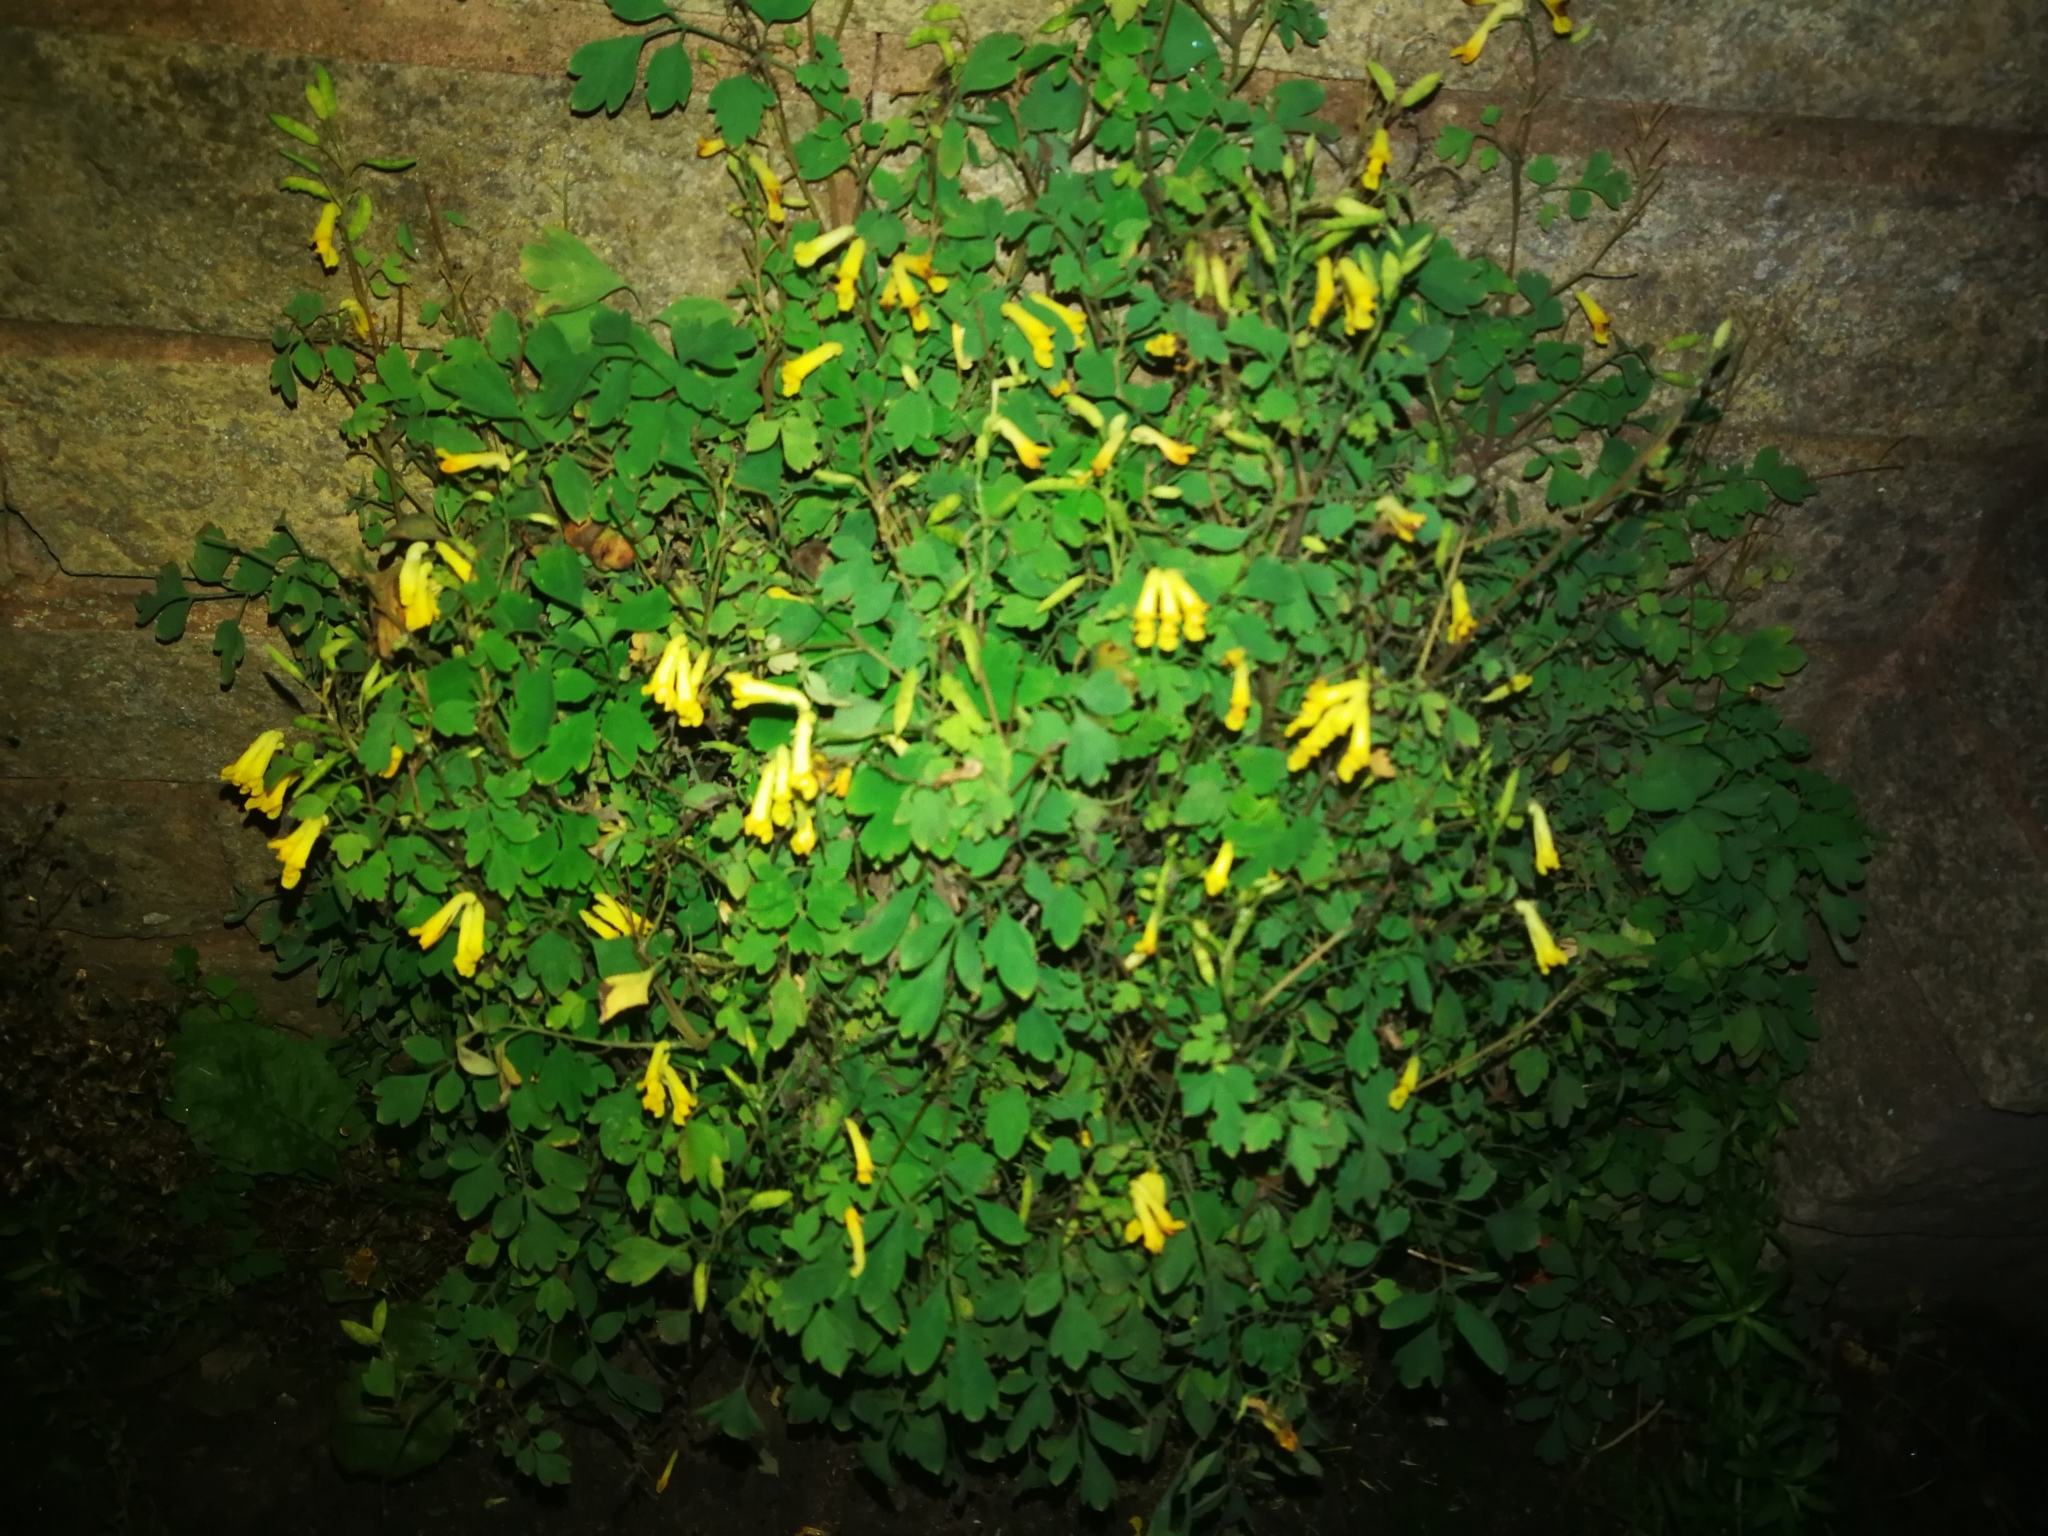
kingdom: Plantae
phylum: Tracheophyta
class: Magnoliopsida
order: Ranunculales
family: Papaveraceae
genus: Pseudofumaria
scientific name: Pseudofumaria lutea
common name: Yellow corydalis
